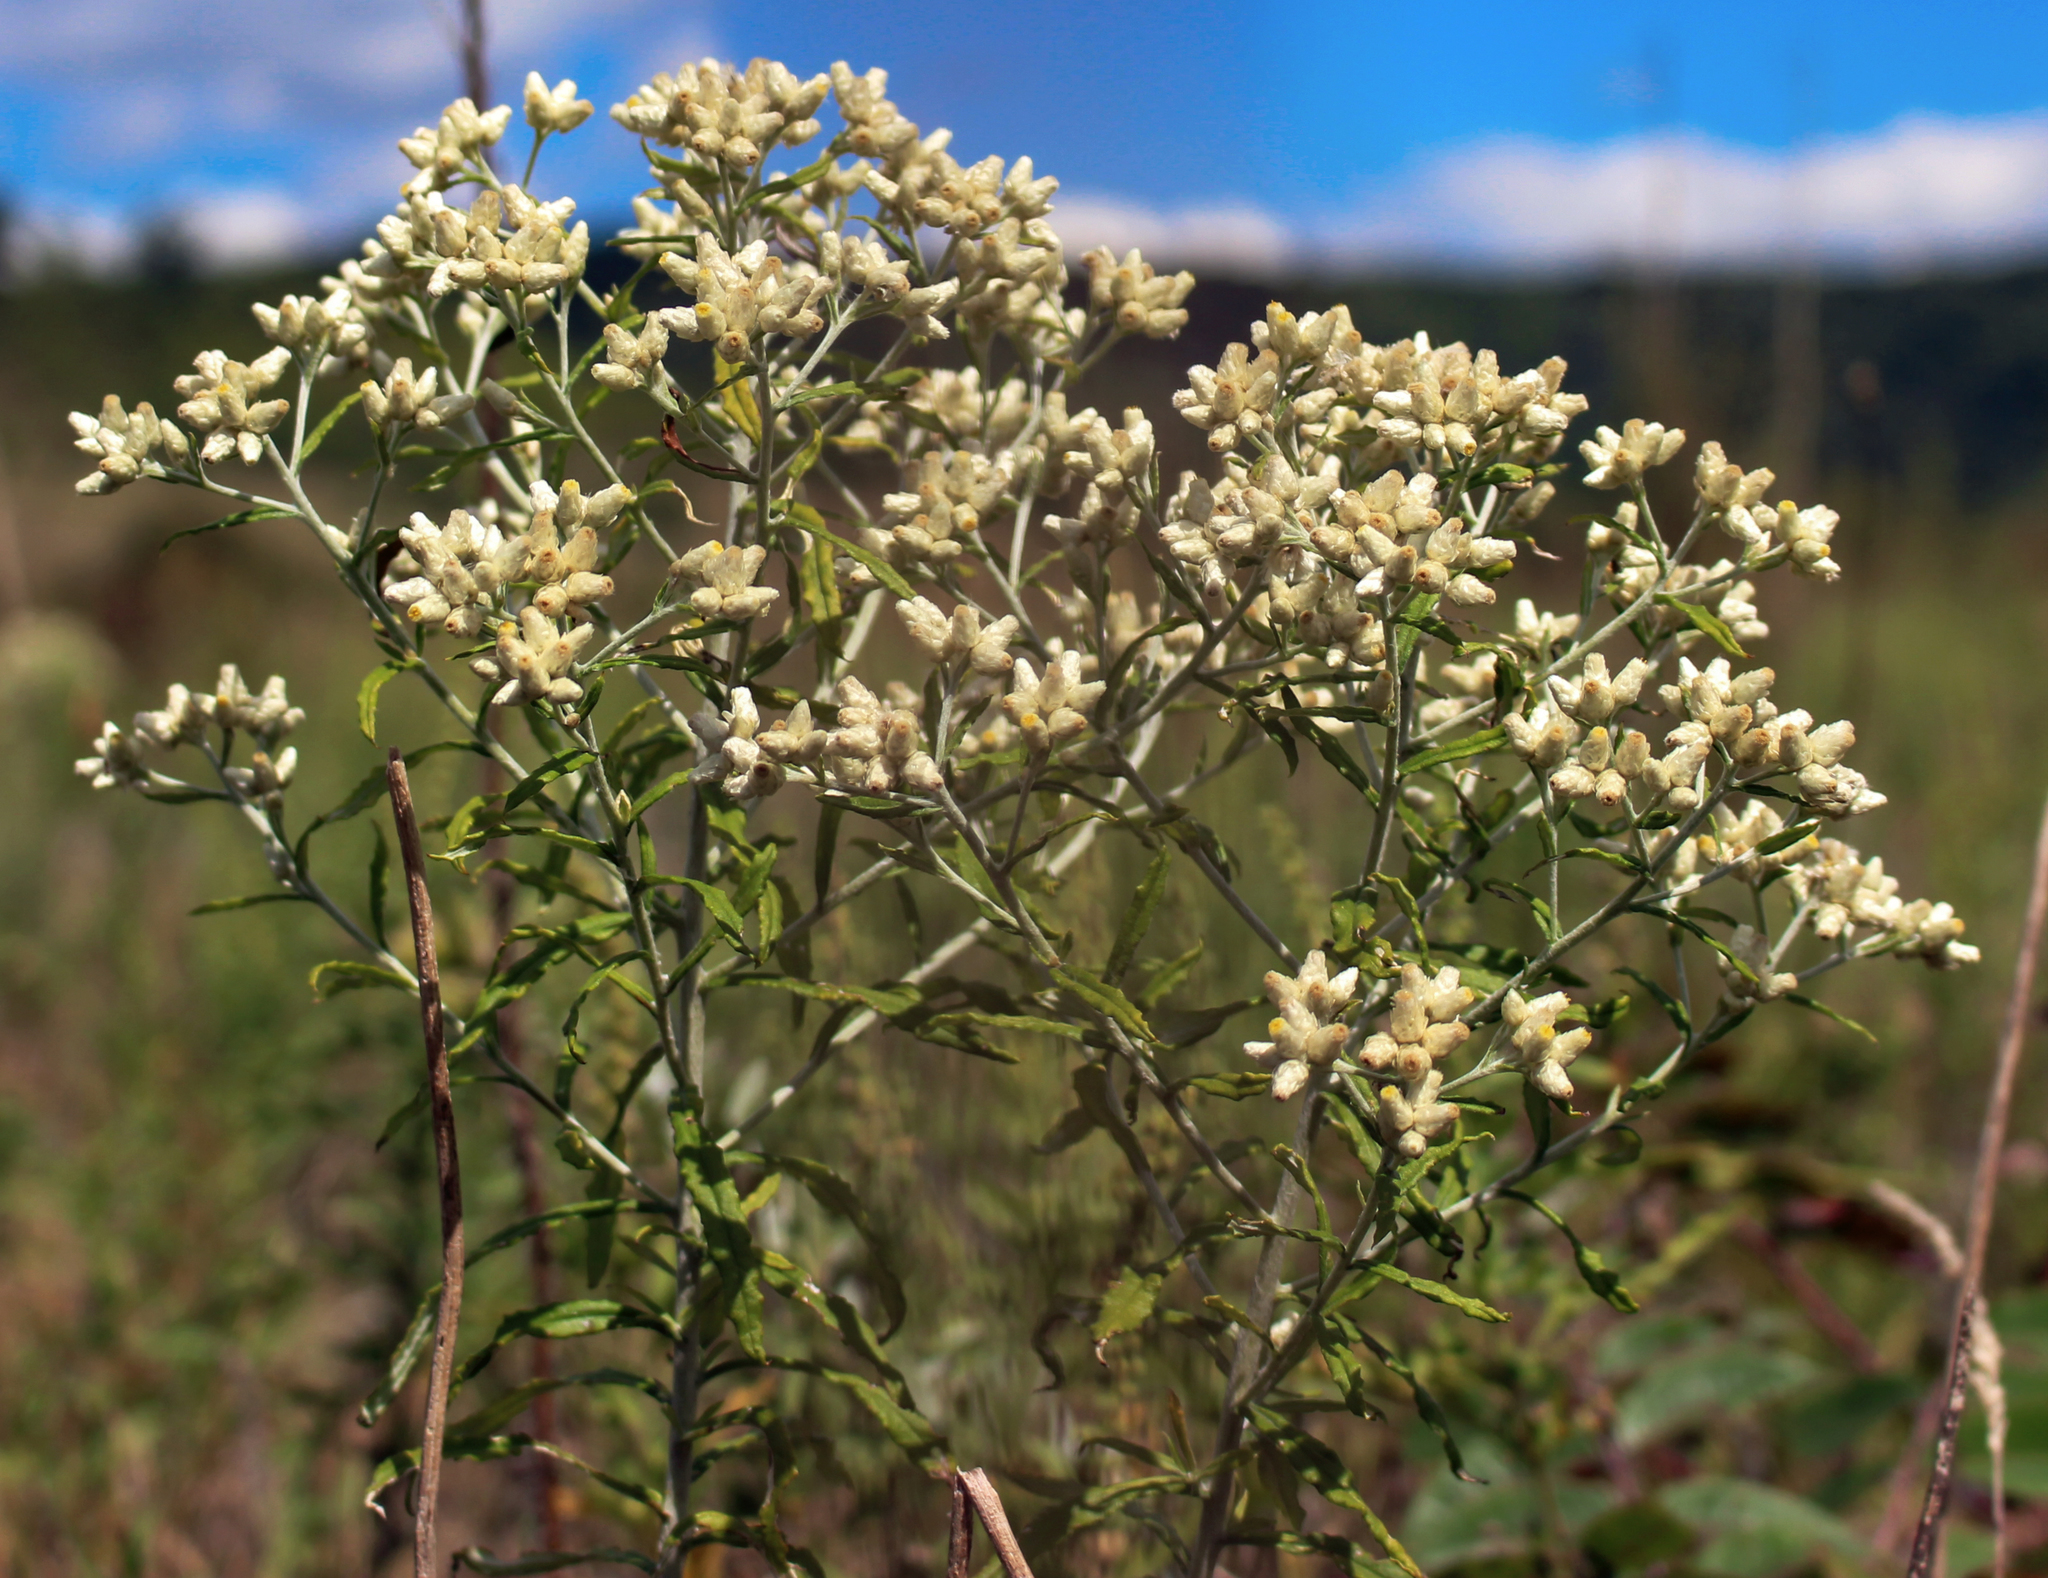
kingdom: Plantae
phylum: Tracheophyta
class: Magnoliopsida
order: Asterales
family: Asteraceae
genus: Pseudognaphalium
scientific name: Pseudognaphalium obtusifolium
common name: Eastern rabbit-tobacco
